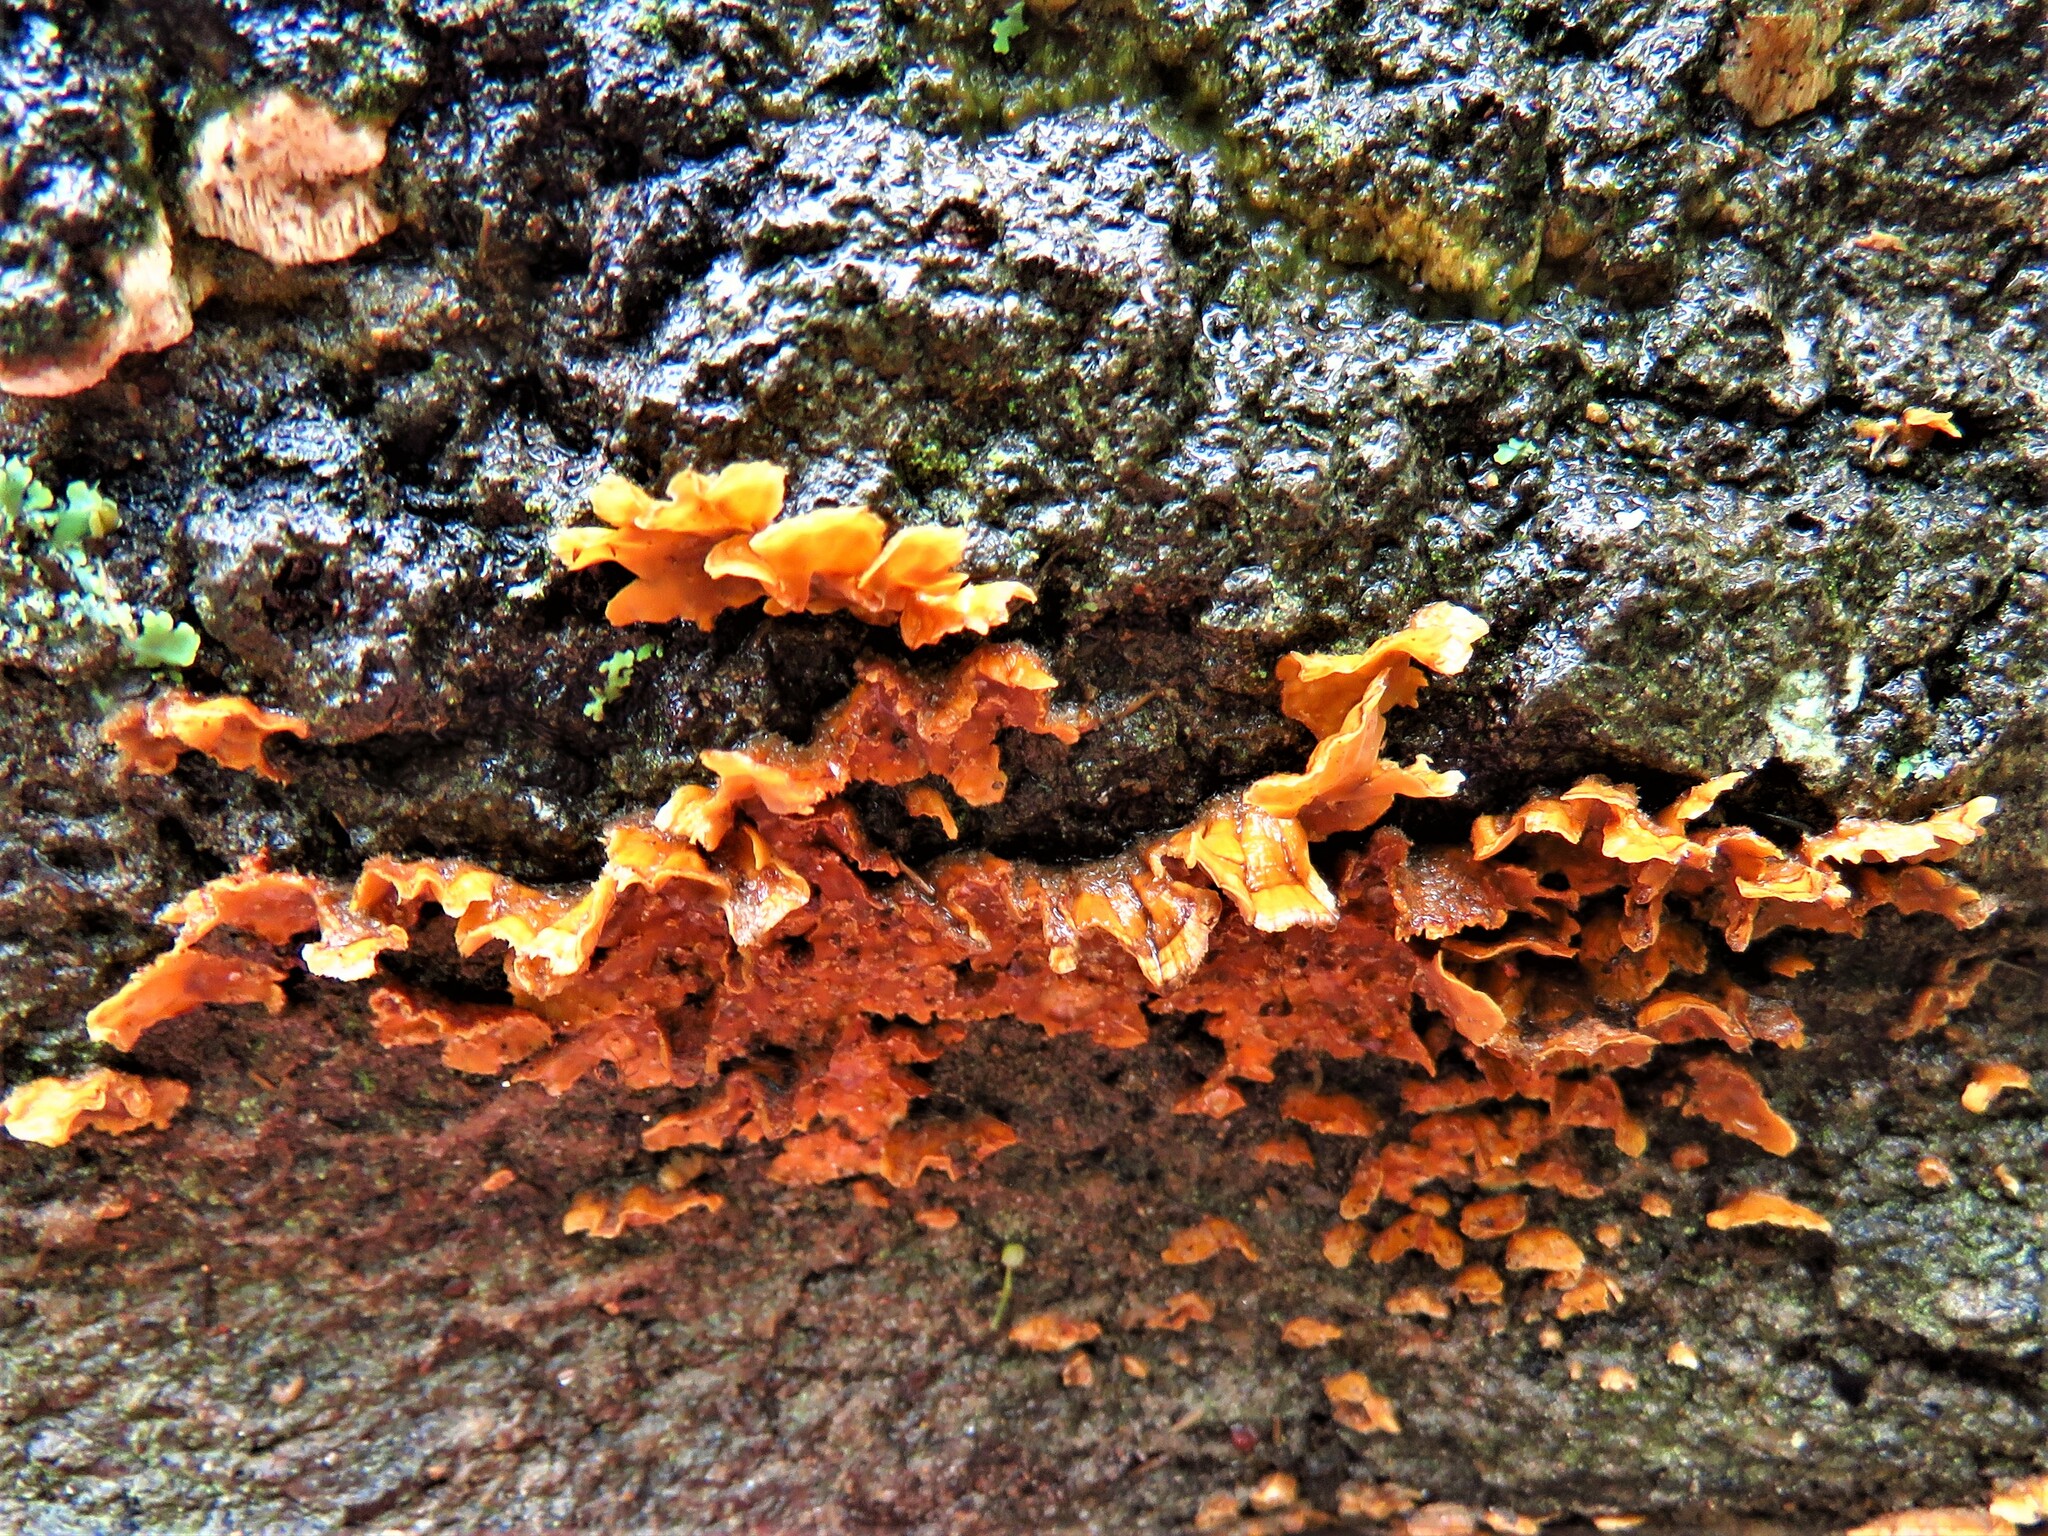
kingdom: Fungi
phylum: Basidiomycota
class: Agaricomycetes
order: Russulales
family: Stereaceae
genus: Stereum
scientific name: Stereum complicatum
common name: Crowded parchment
